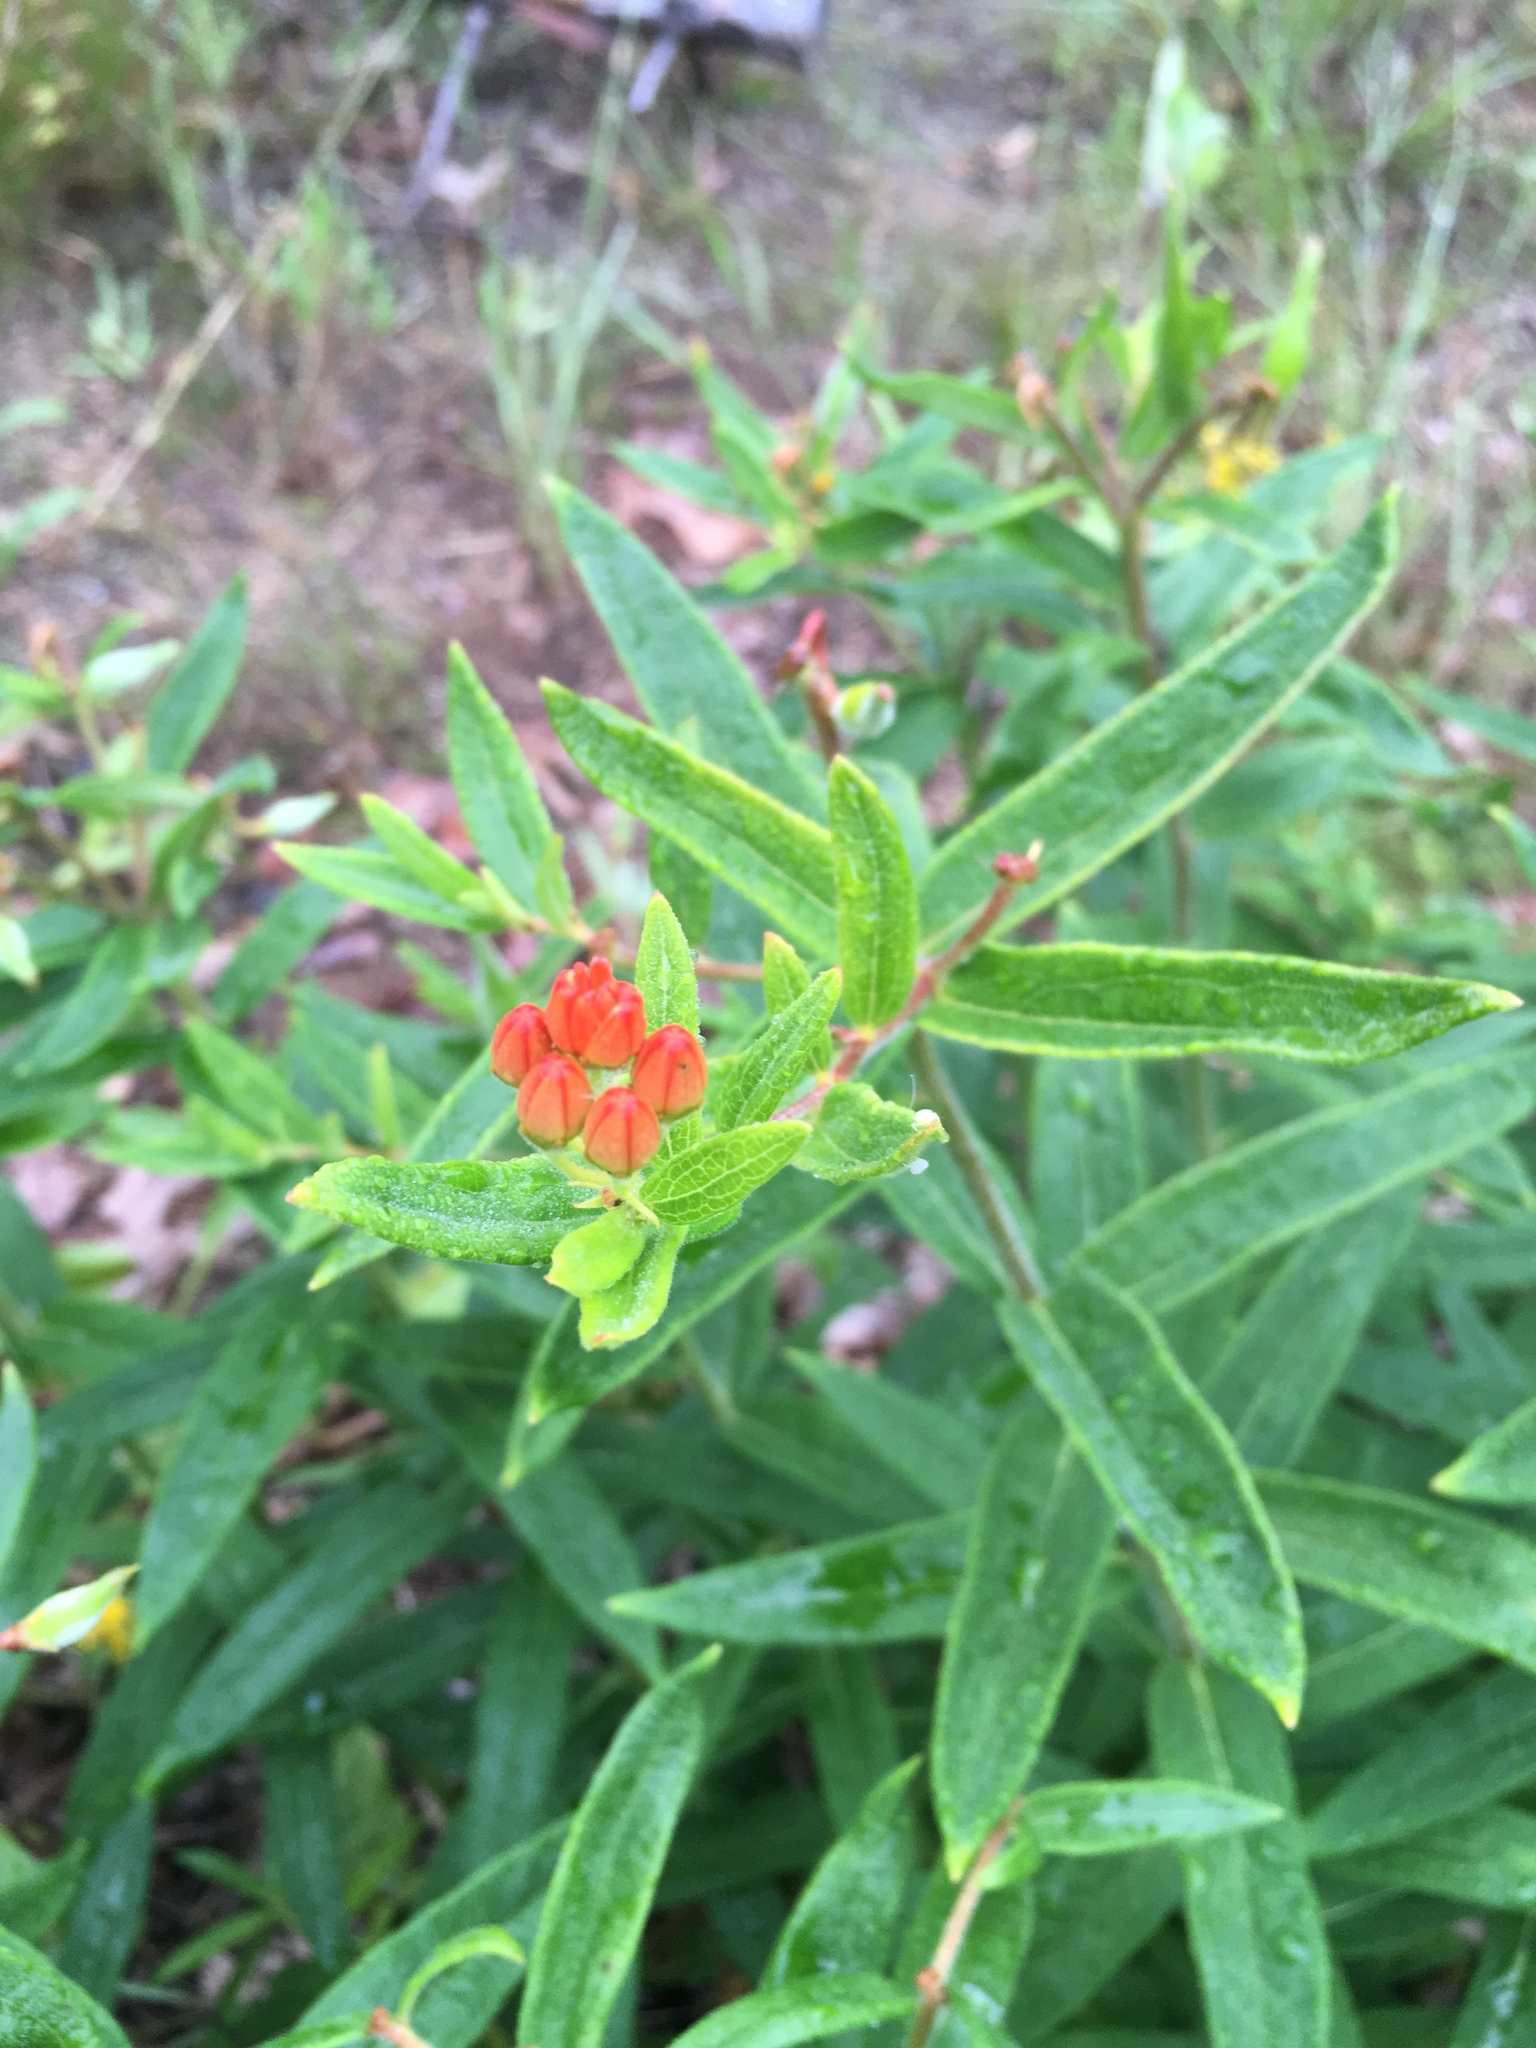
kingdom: Plantae
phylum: Tracheophyta
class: Magnoliopsida
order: Gentianales
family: Apocynaceae
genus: Asclepias
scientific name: Asclepias tuberosa
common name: Butterfly milkweed
